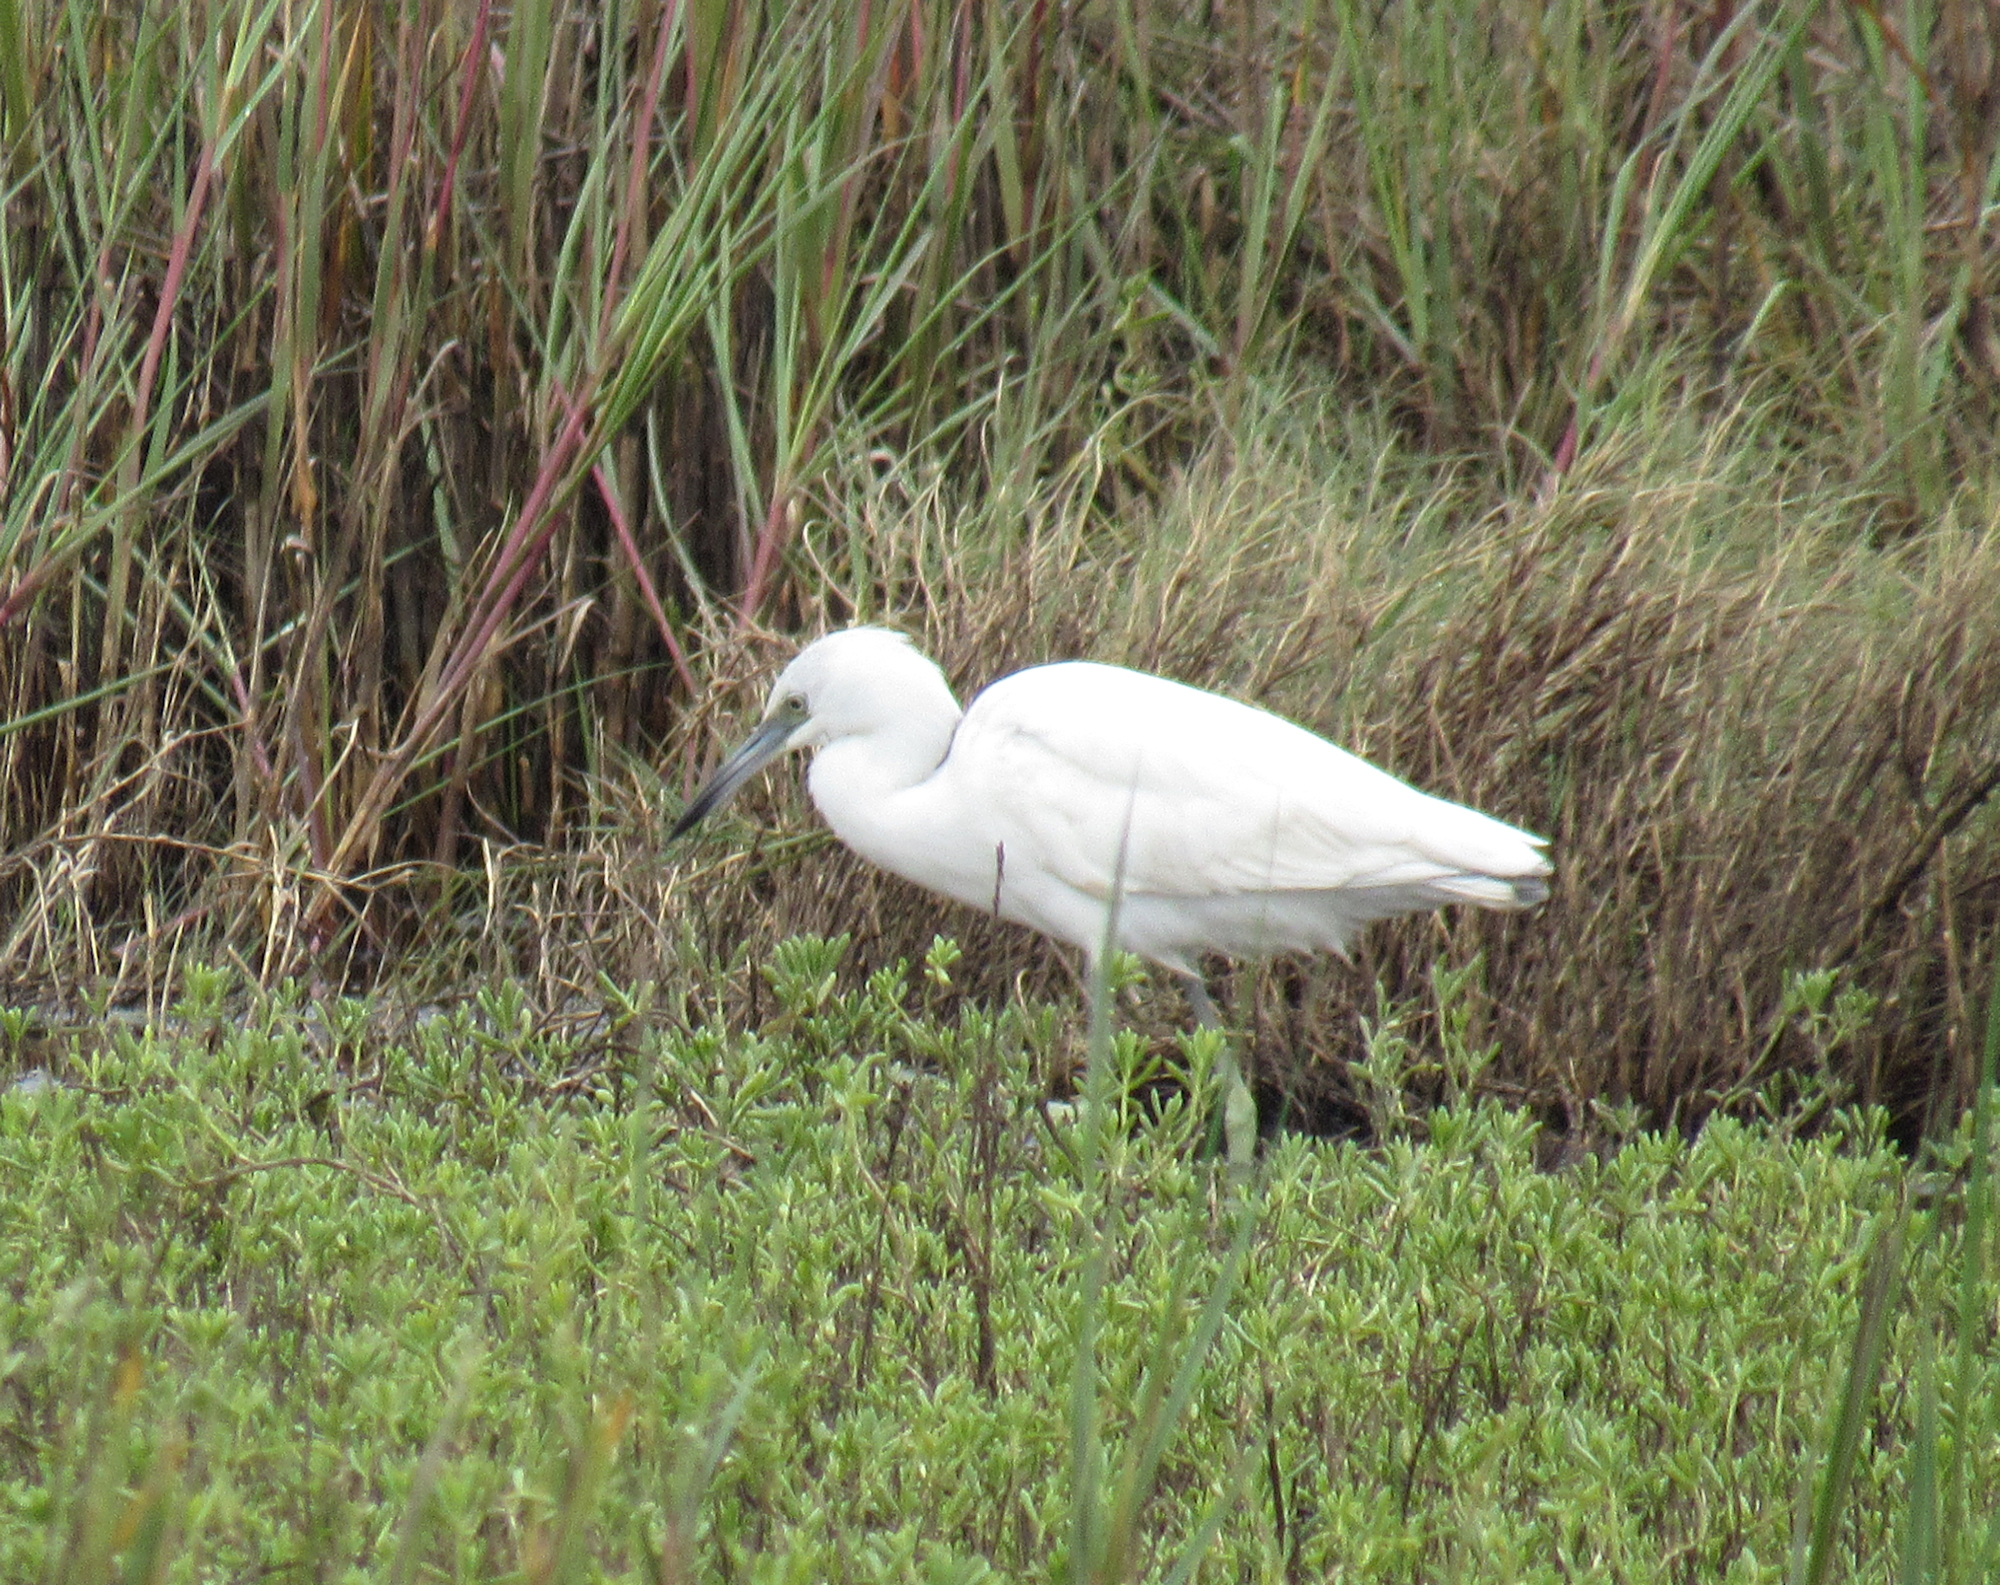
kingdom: Animalia
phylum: Chordata
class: Aves
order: Pelecaniformes
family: Ardeidae
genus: Egretta
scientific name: Egretta caerulea
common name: Little blue heron
